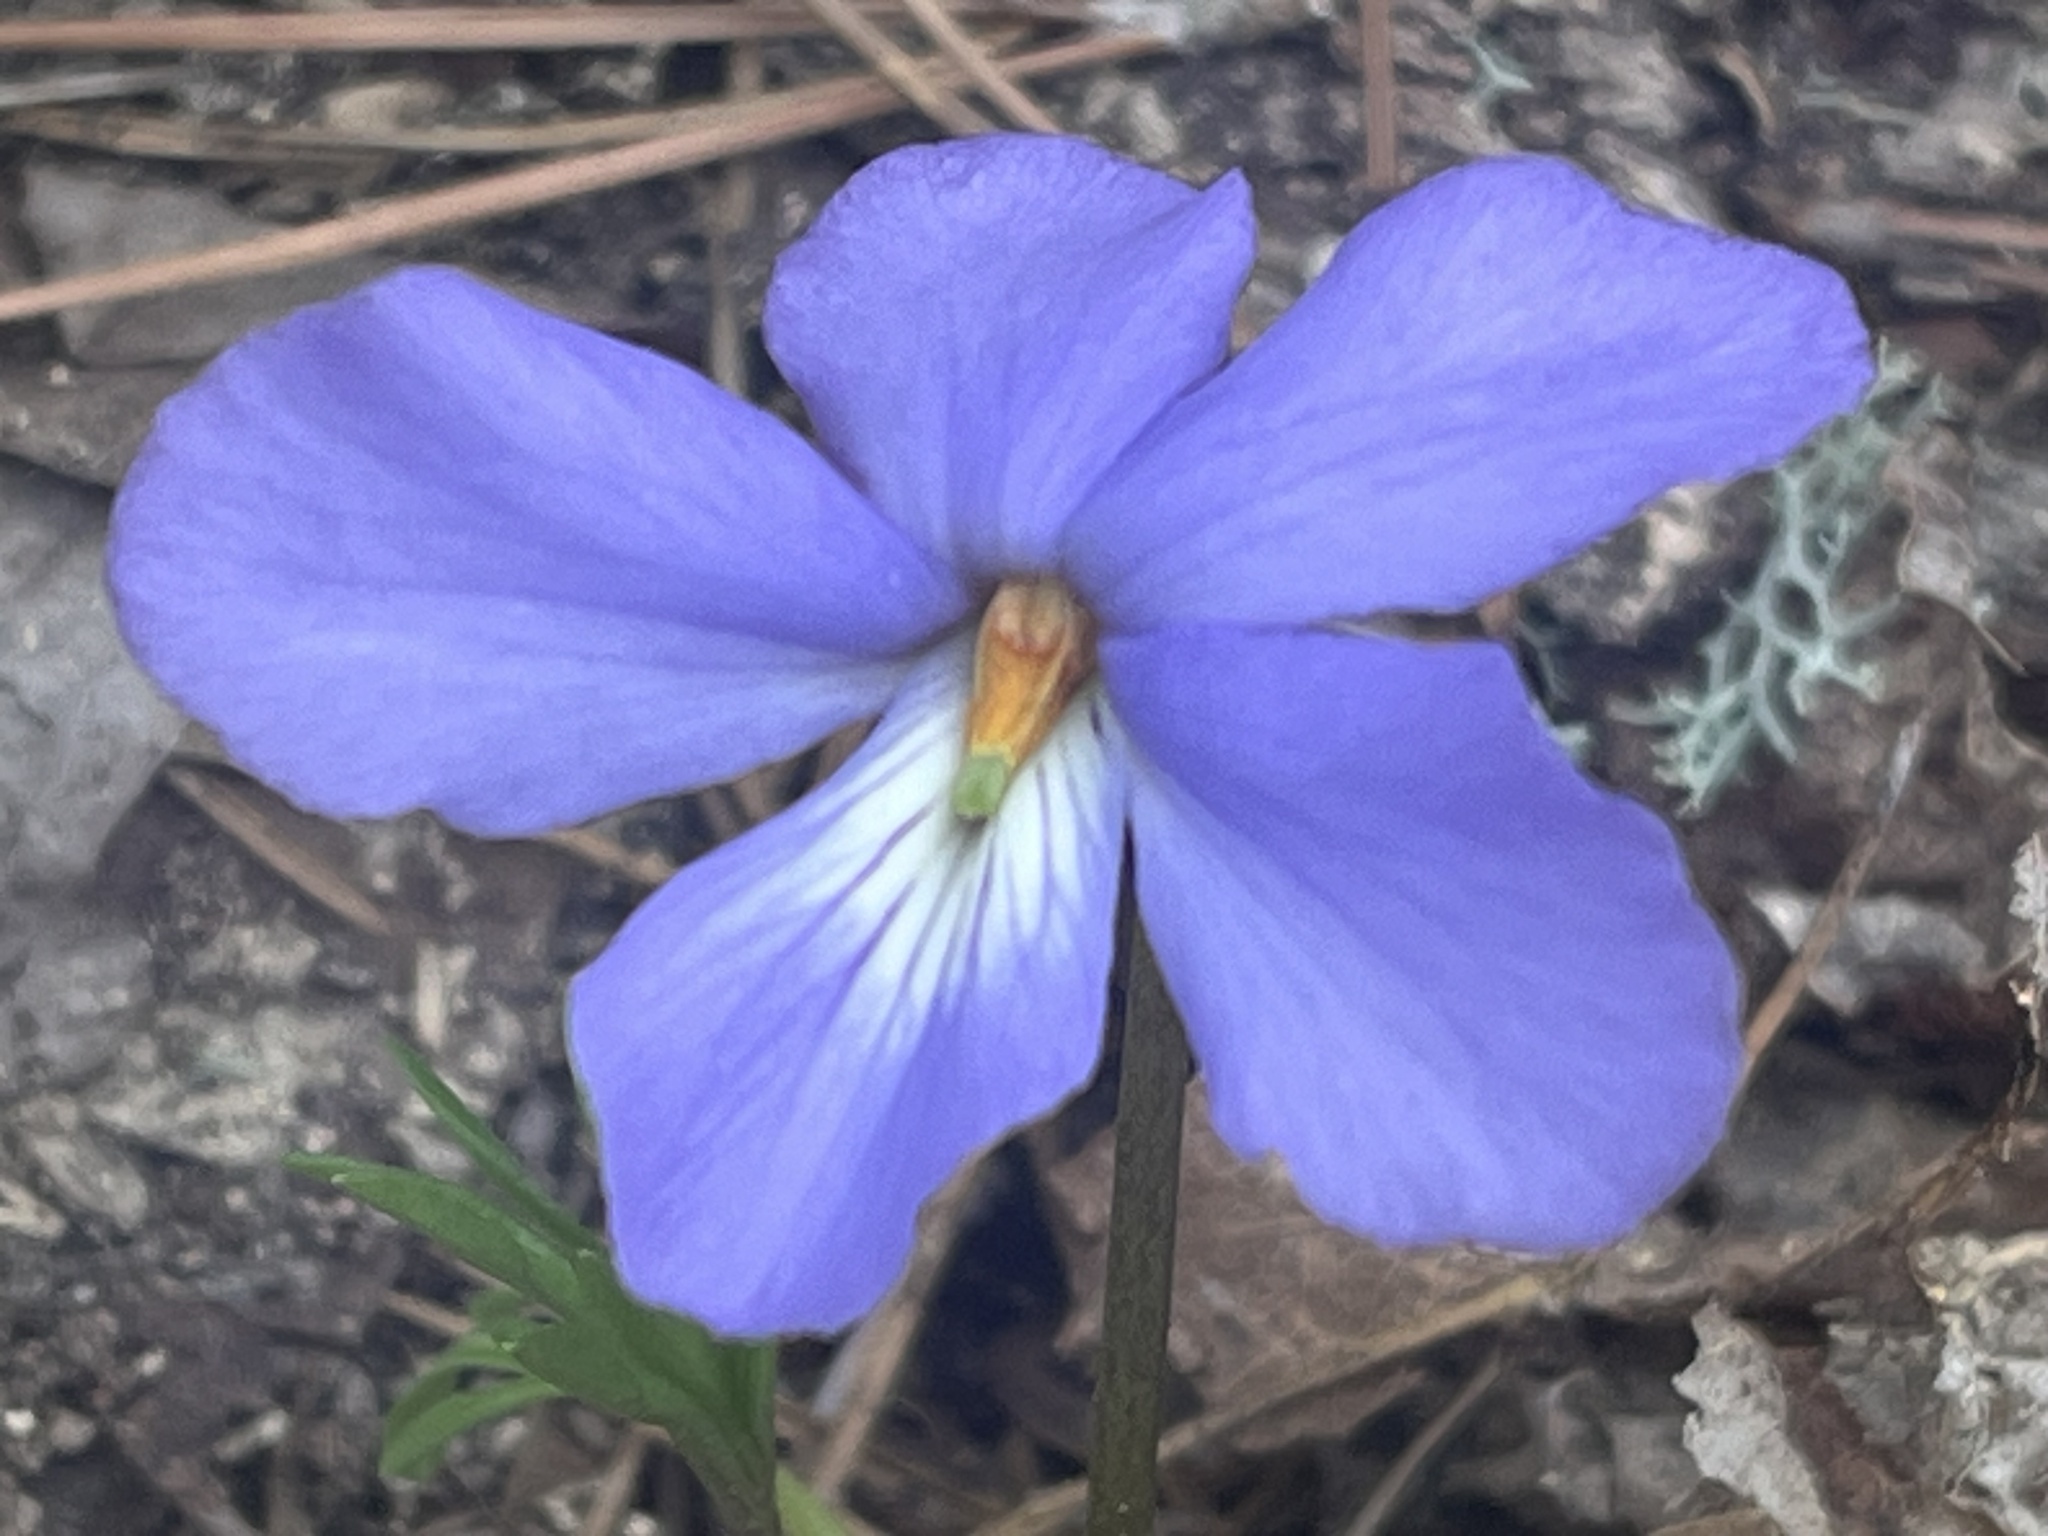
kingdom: Plantae
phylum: Tracheophyta
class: Magnoliopsida
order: Malpighiales
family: Violaceae
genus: Viola
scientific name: Viola pedata
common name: Pansy violet
